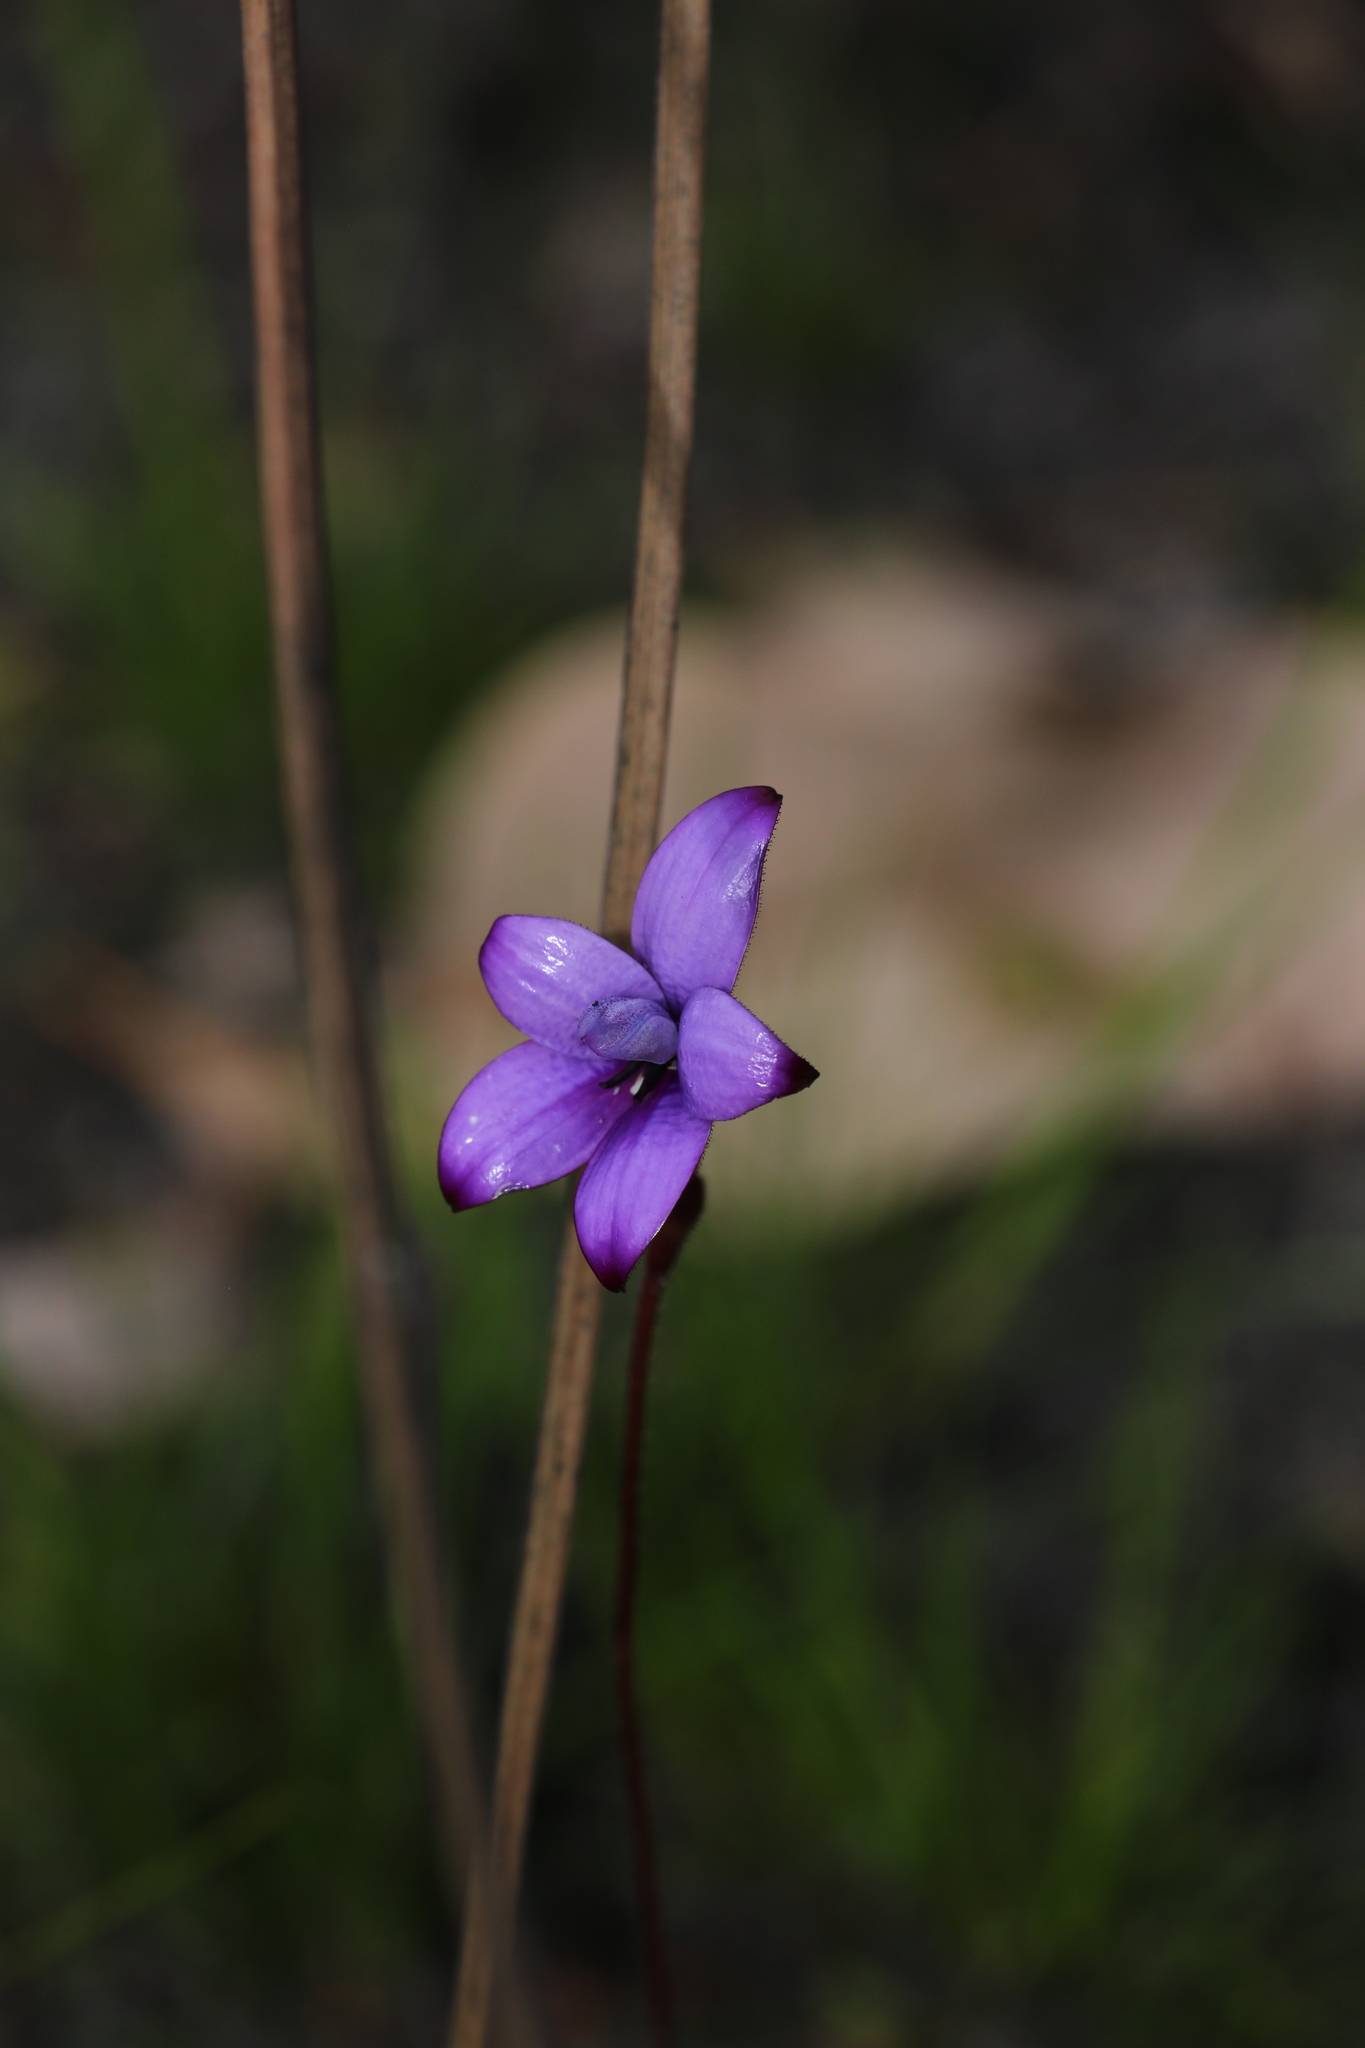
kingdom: Plantae
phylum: Tracheophyta
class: Liliopsida
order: Asparagales
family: Orchidaceae
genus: Caladenia
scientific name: Caladenia brunonis
